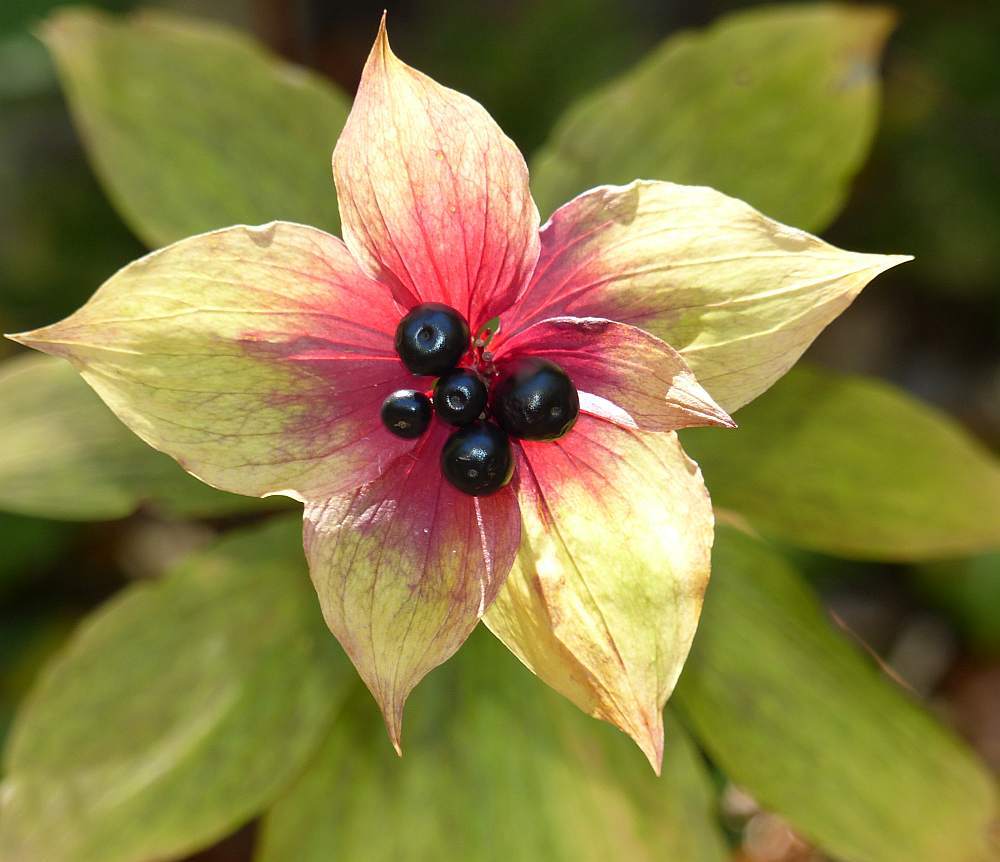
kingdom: Plantae
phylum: Tracheophyta
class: Liliopsida
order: Liliales
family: Liliaceae
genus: Medeola
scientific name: Medeola virginiana
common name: Indian cucumber-root
